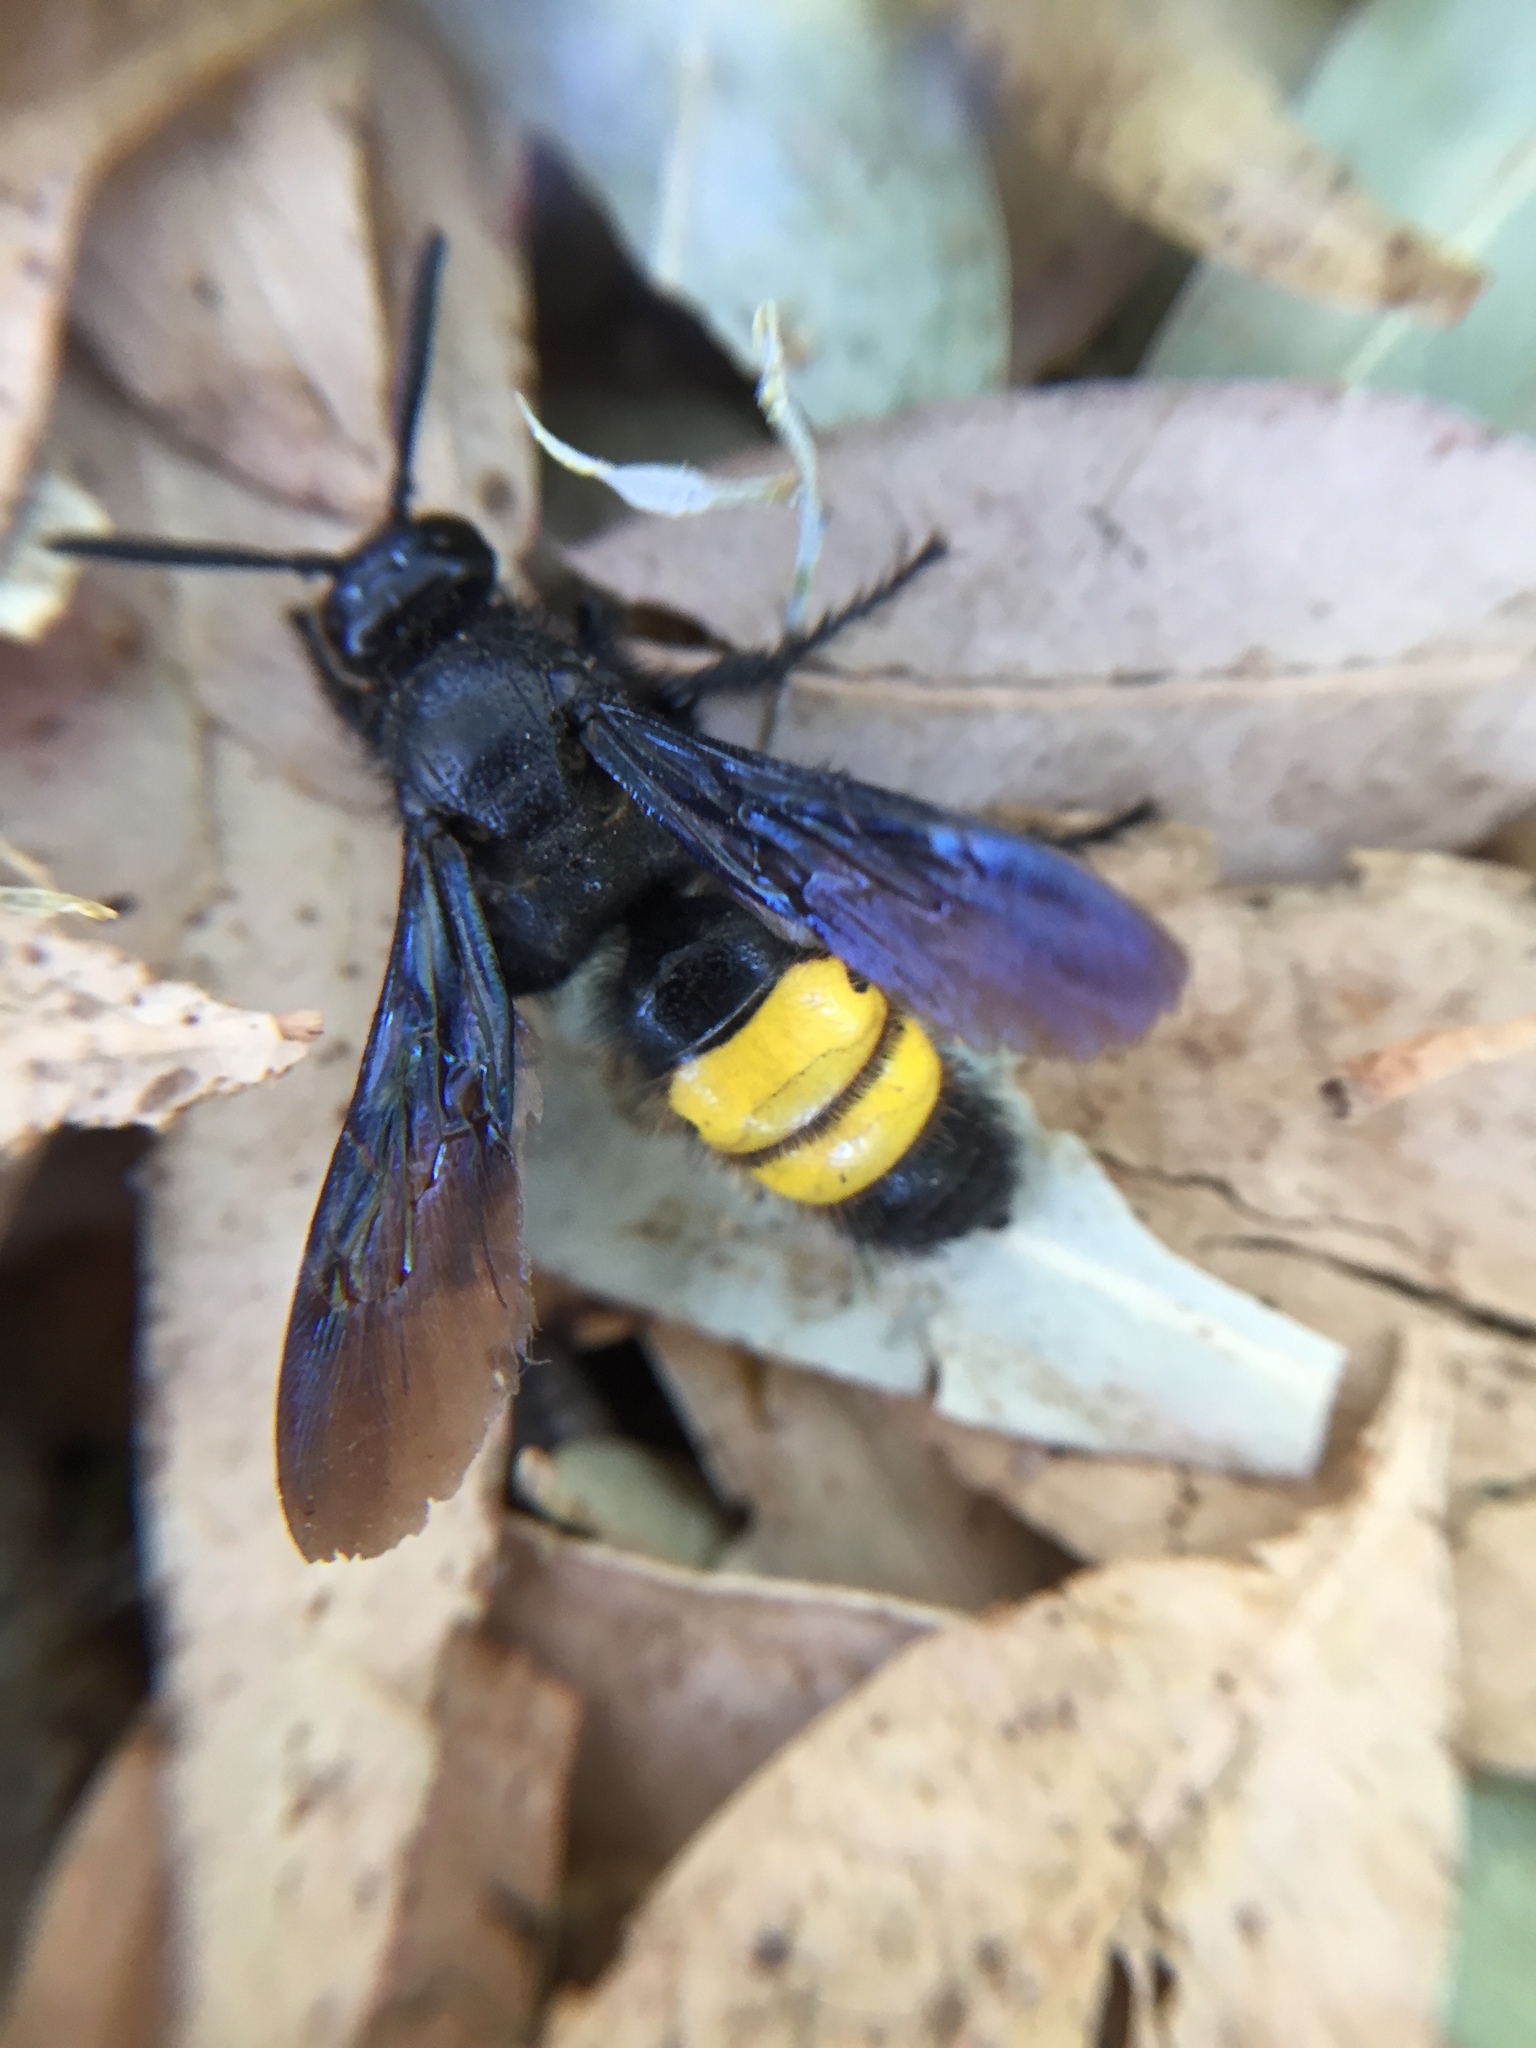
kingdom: Animalia
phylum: Arthropoda
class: Insecta
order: Hymenoptera
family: Scoliidae
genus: Scolia
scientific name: Scolia hirta
